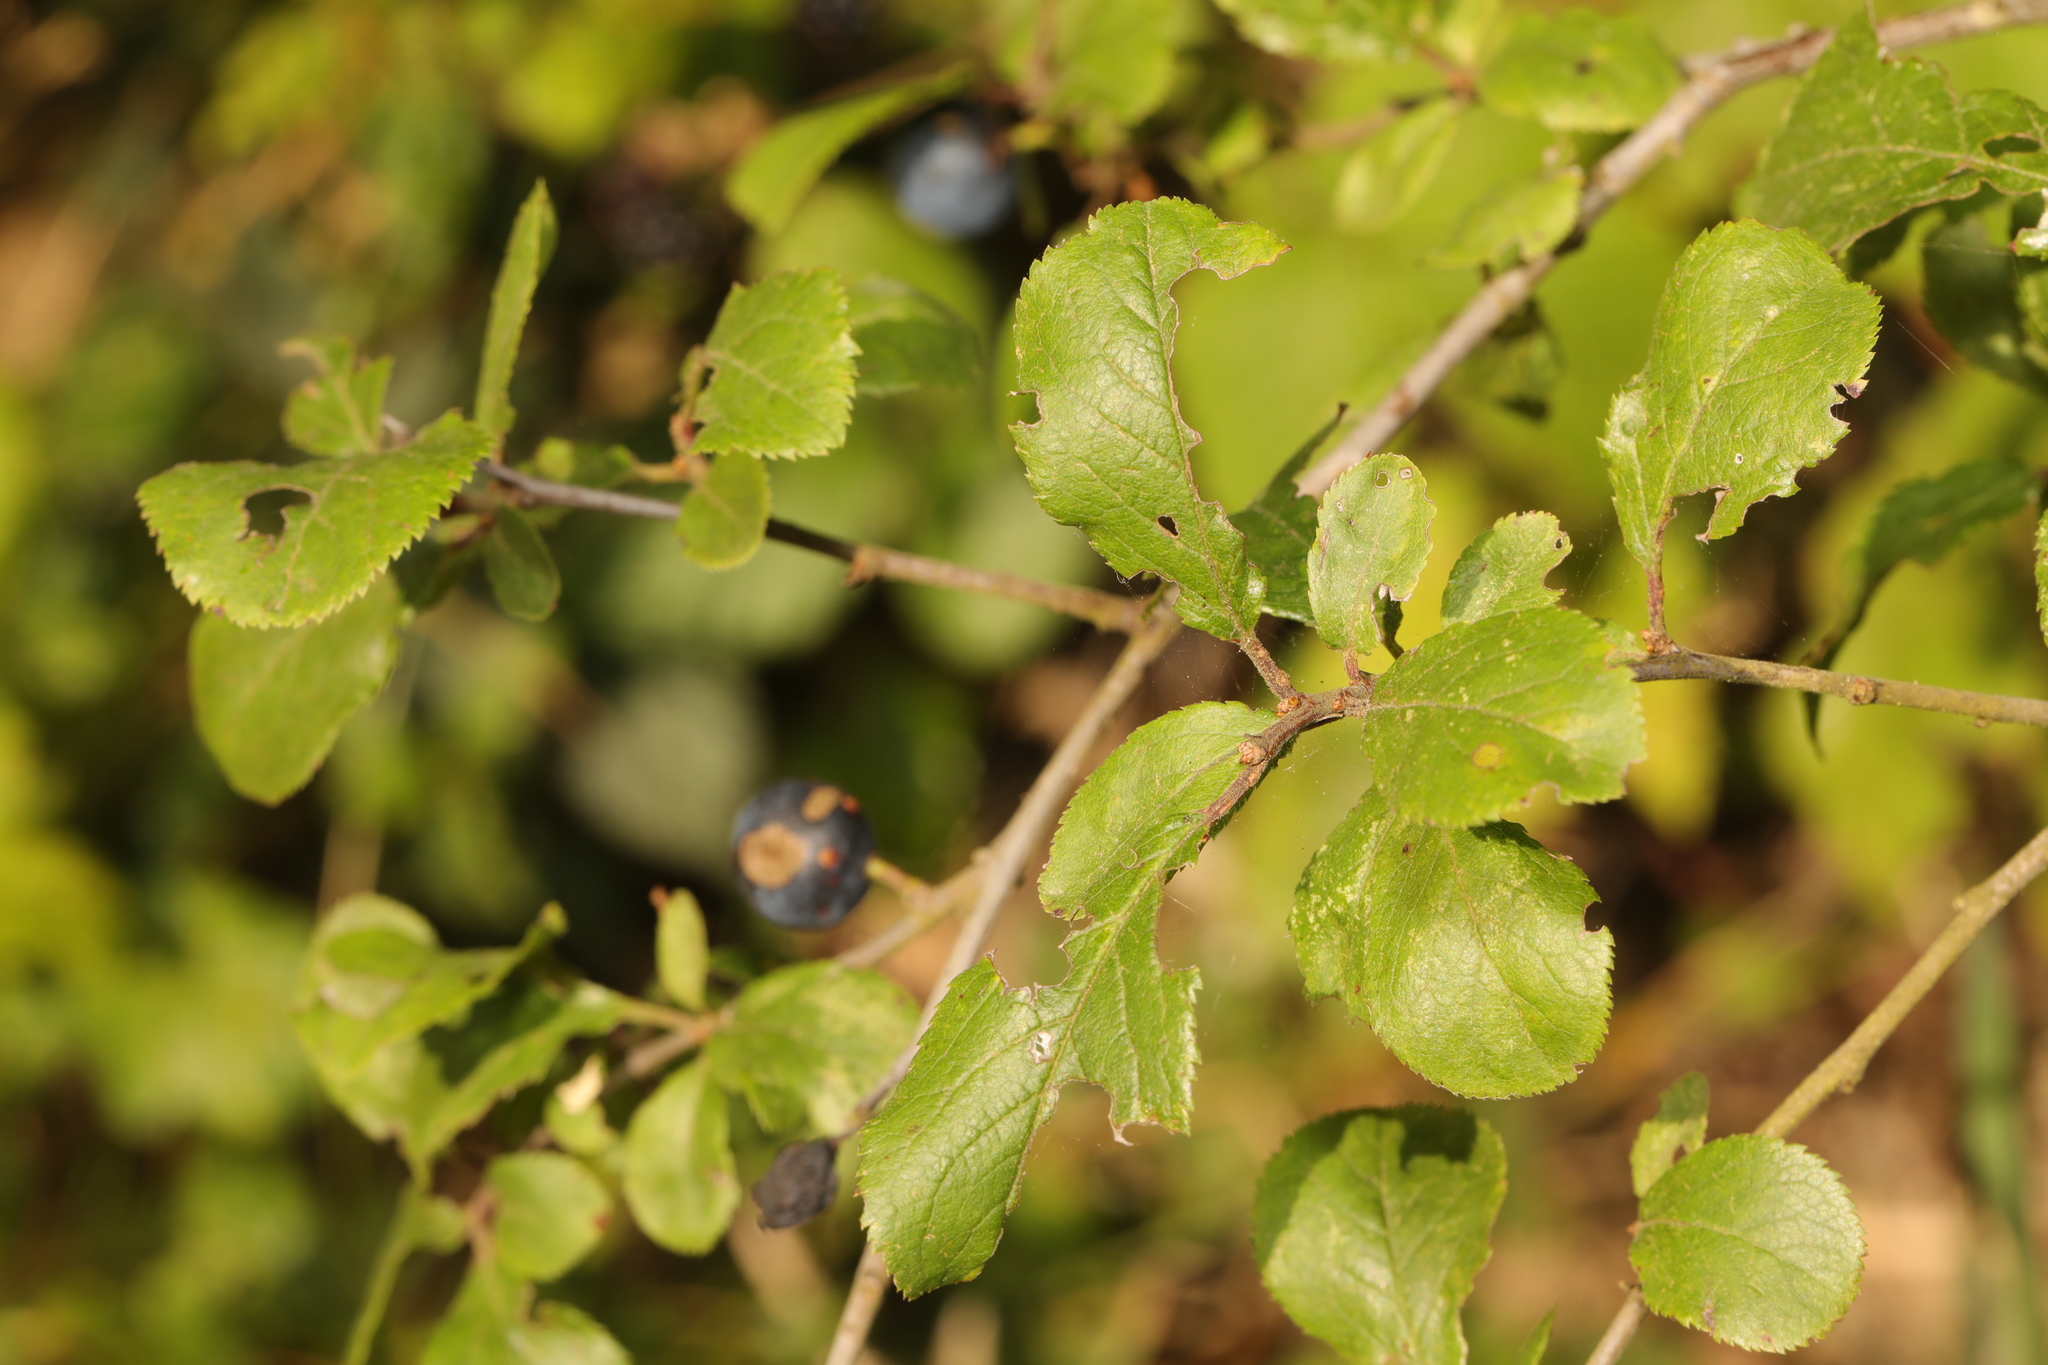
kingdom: Plantae
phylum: Tracheophyta
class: Magnoliopsida
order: Rosales
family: Rosaceae
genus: Prunus
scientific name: Prunus spinosa
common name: Blackthorn
